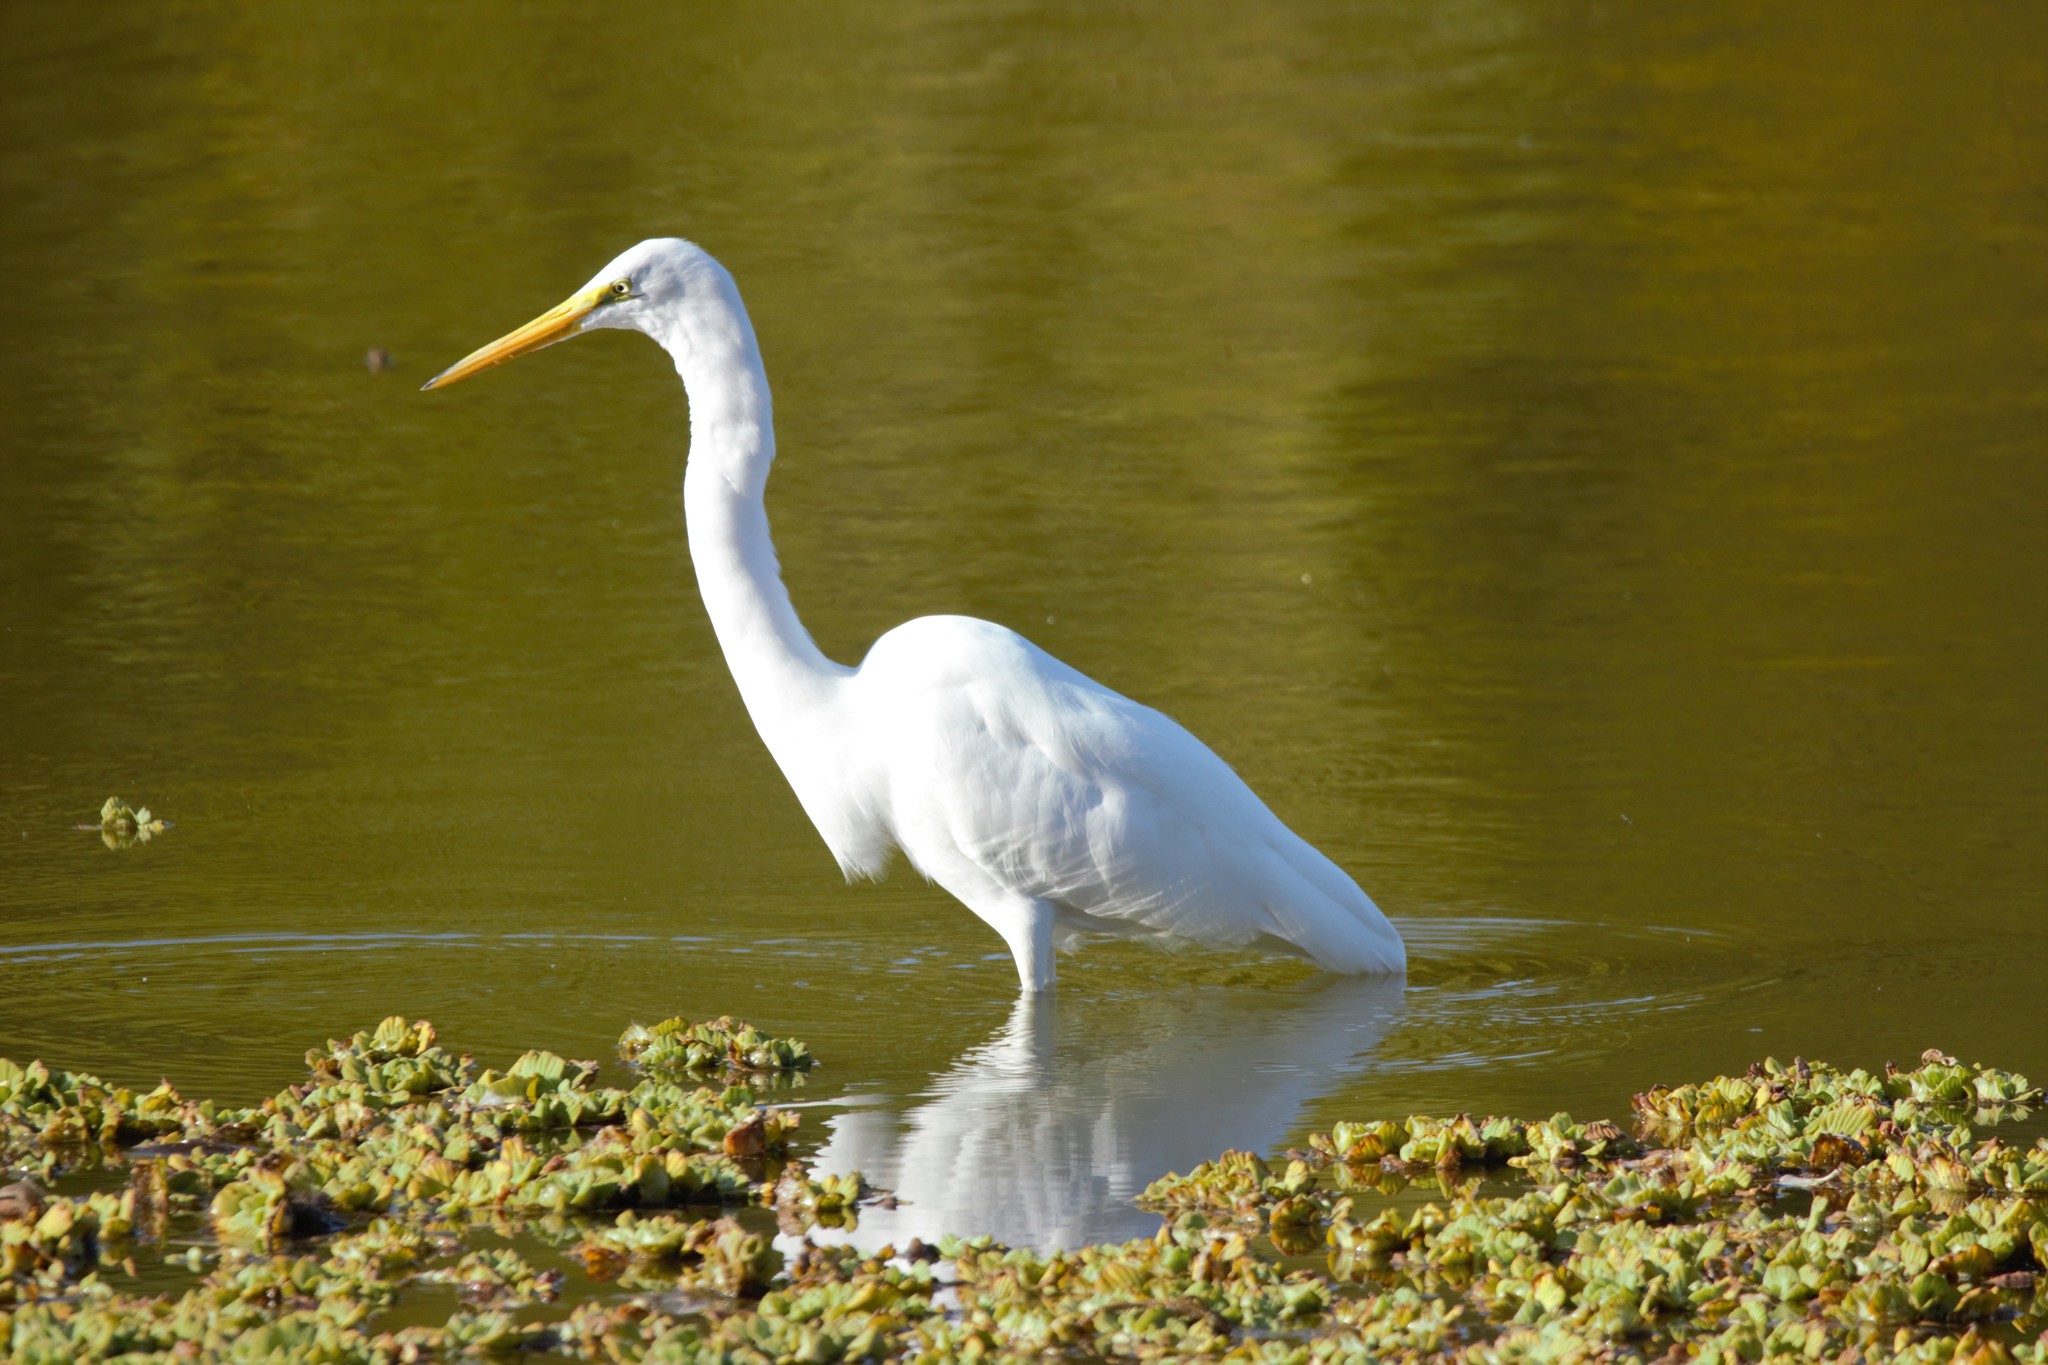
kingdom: Animalia
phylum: Chordata
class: Aves
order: Pelecaniformes
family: Ardeidae
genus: Ardea
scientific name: Ardea alba
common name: Great egret
